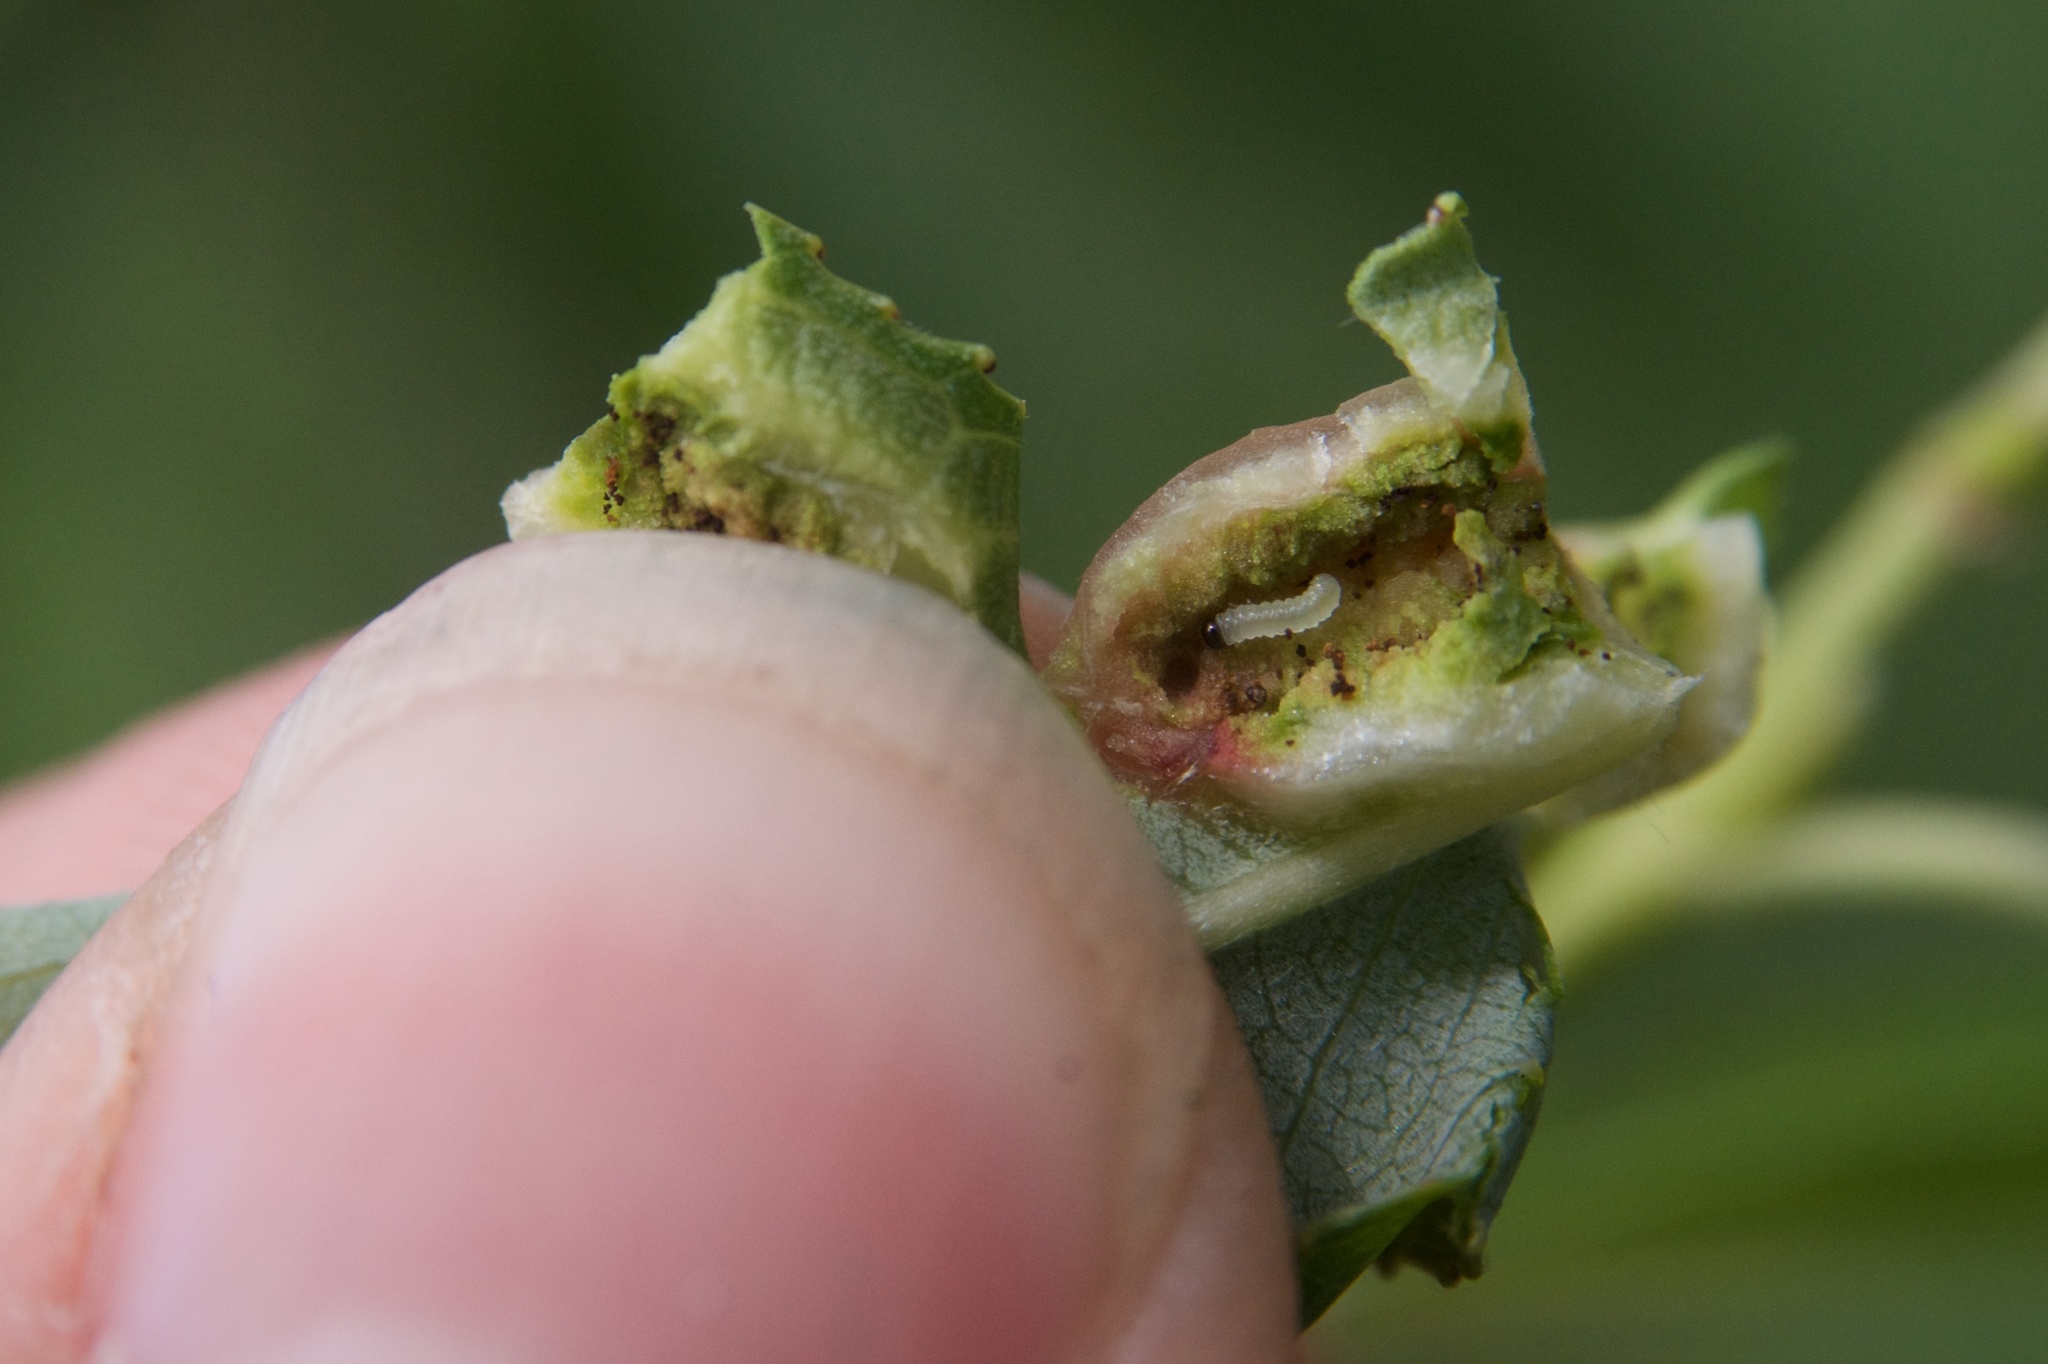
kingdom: Animalia
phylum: Arthropoda
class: Insecta
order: Hymenoptera
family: Tenthredinidae
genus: Pontania
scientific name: Pontania proxima
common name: Common sawfly
